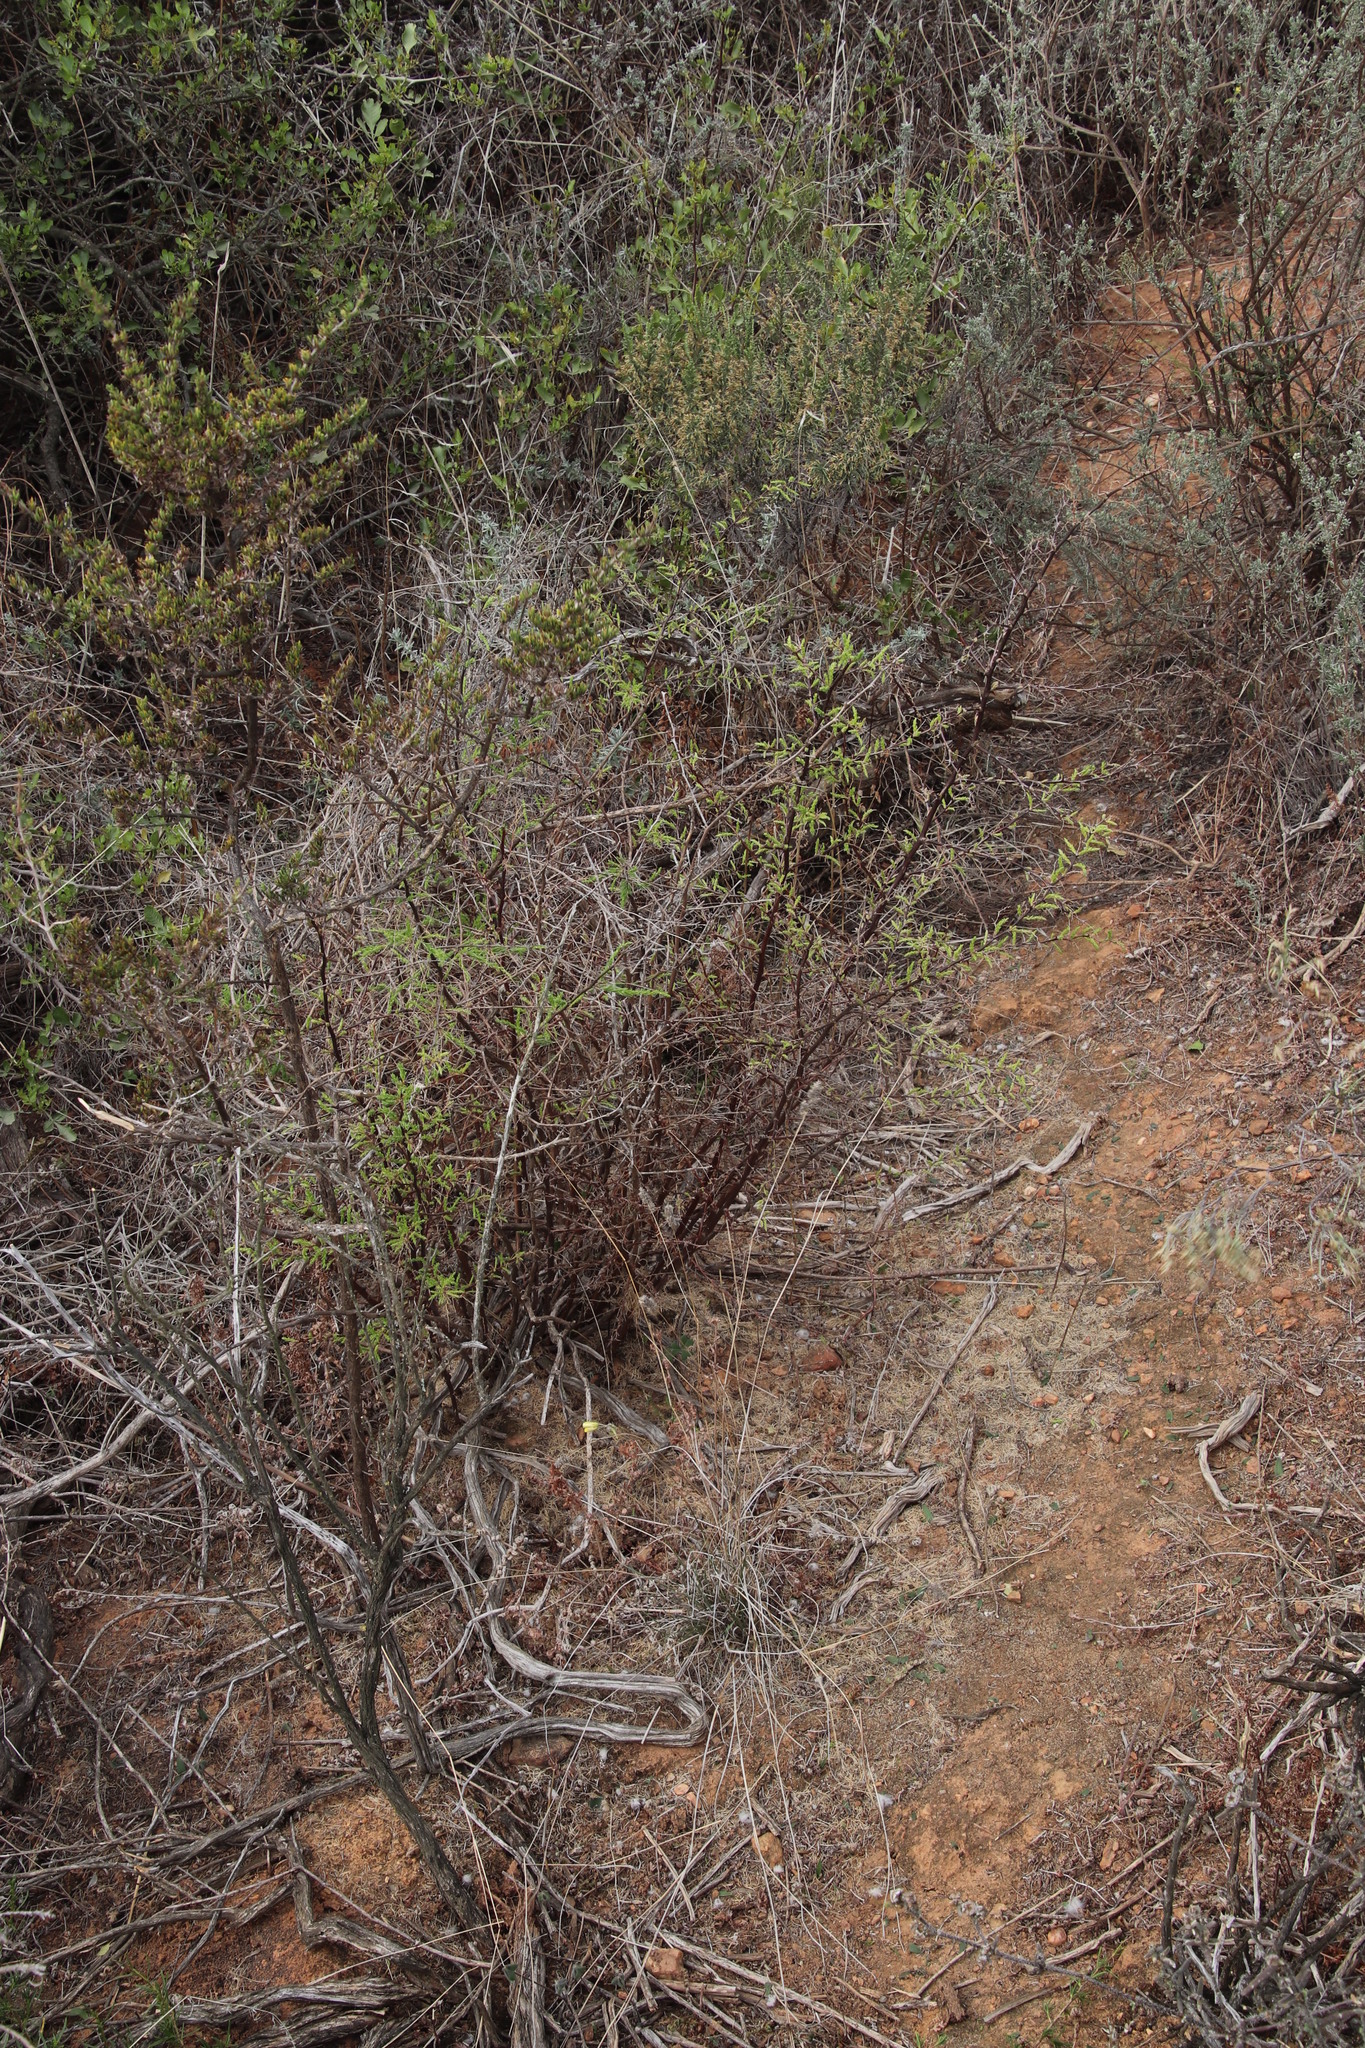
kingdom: Plantae
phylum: Tracheophyta
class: Liliopsida
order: Asparagales
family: Asparagaceae
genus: Asparagus
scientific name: Asparagus rubicundus
